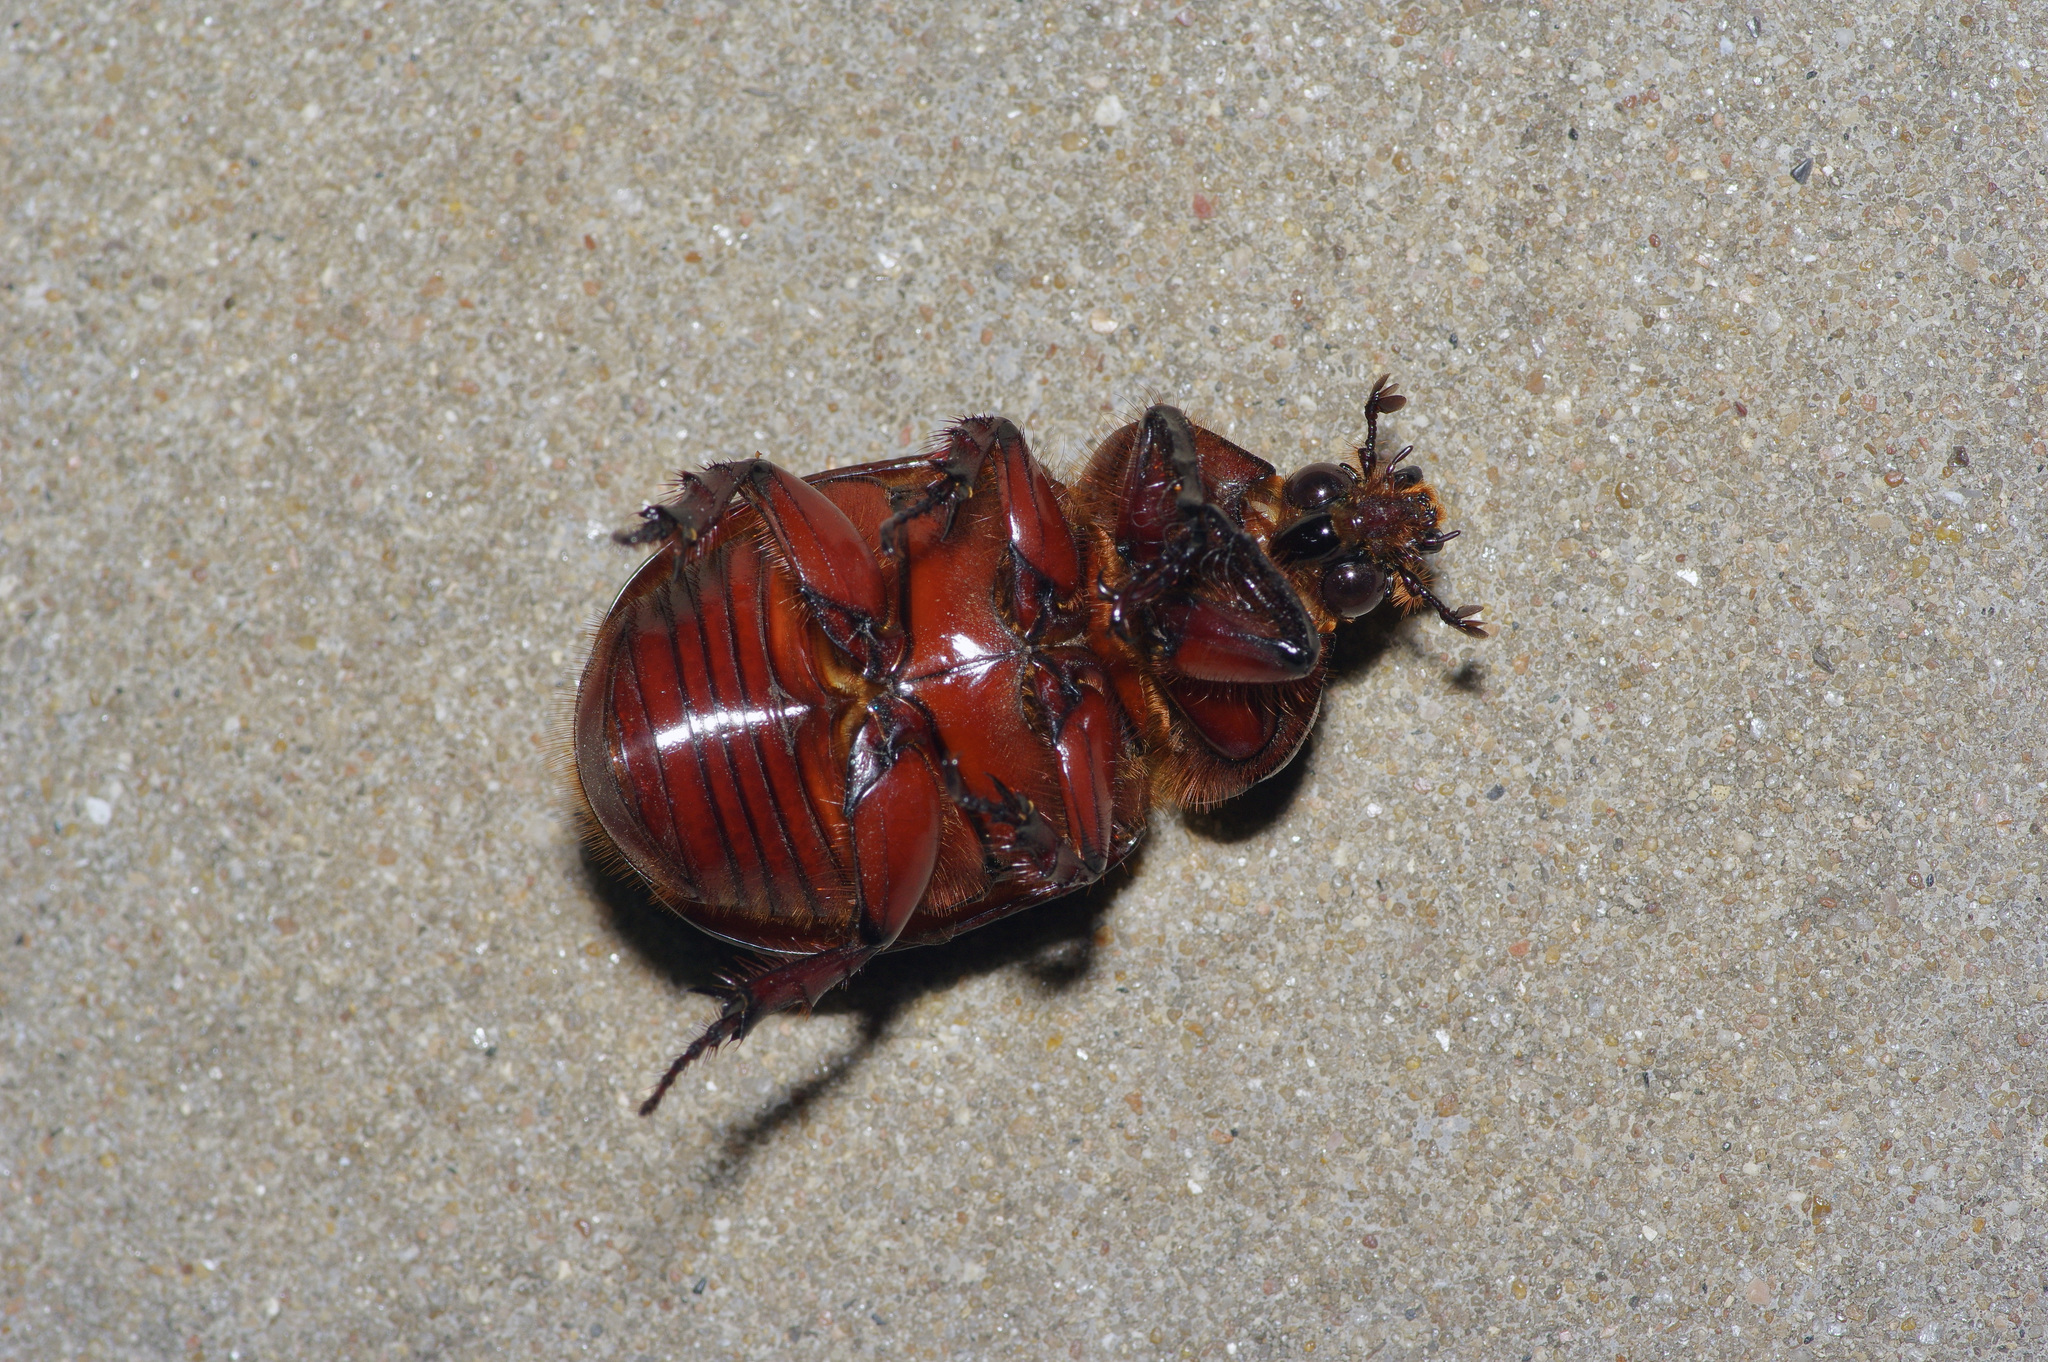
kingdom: Animalia
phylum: Arthropoda
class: Insecta
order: Coleoptera
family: Scarabaeidae
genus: Strategus
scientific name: Strategus aloeus
